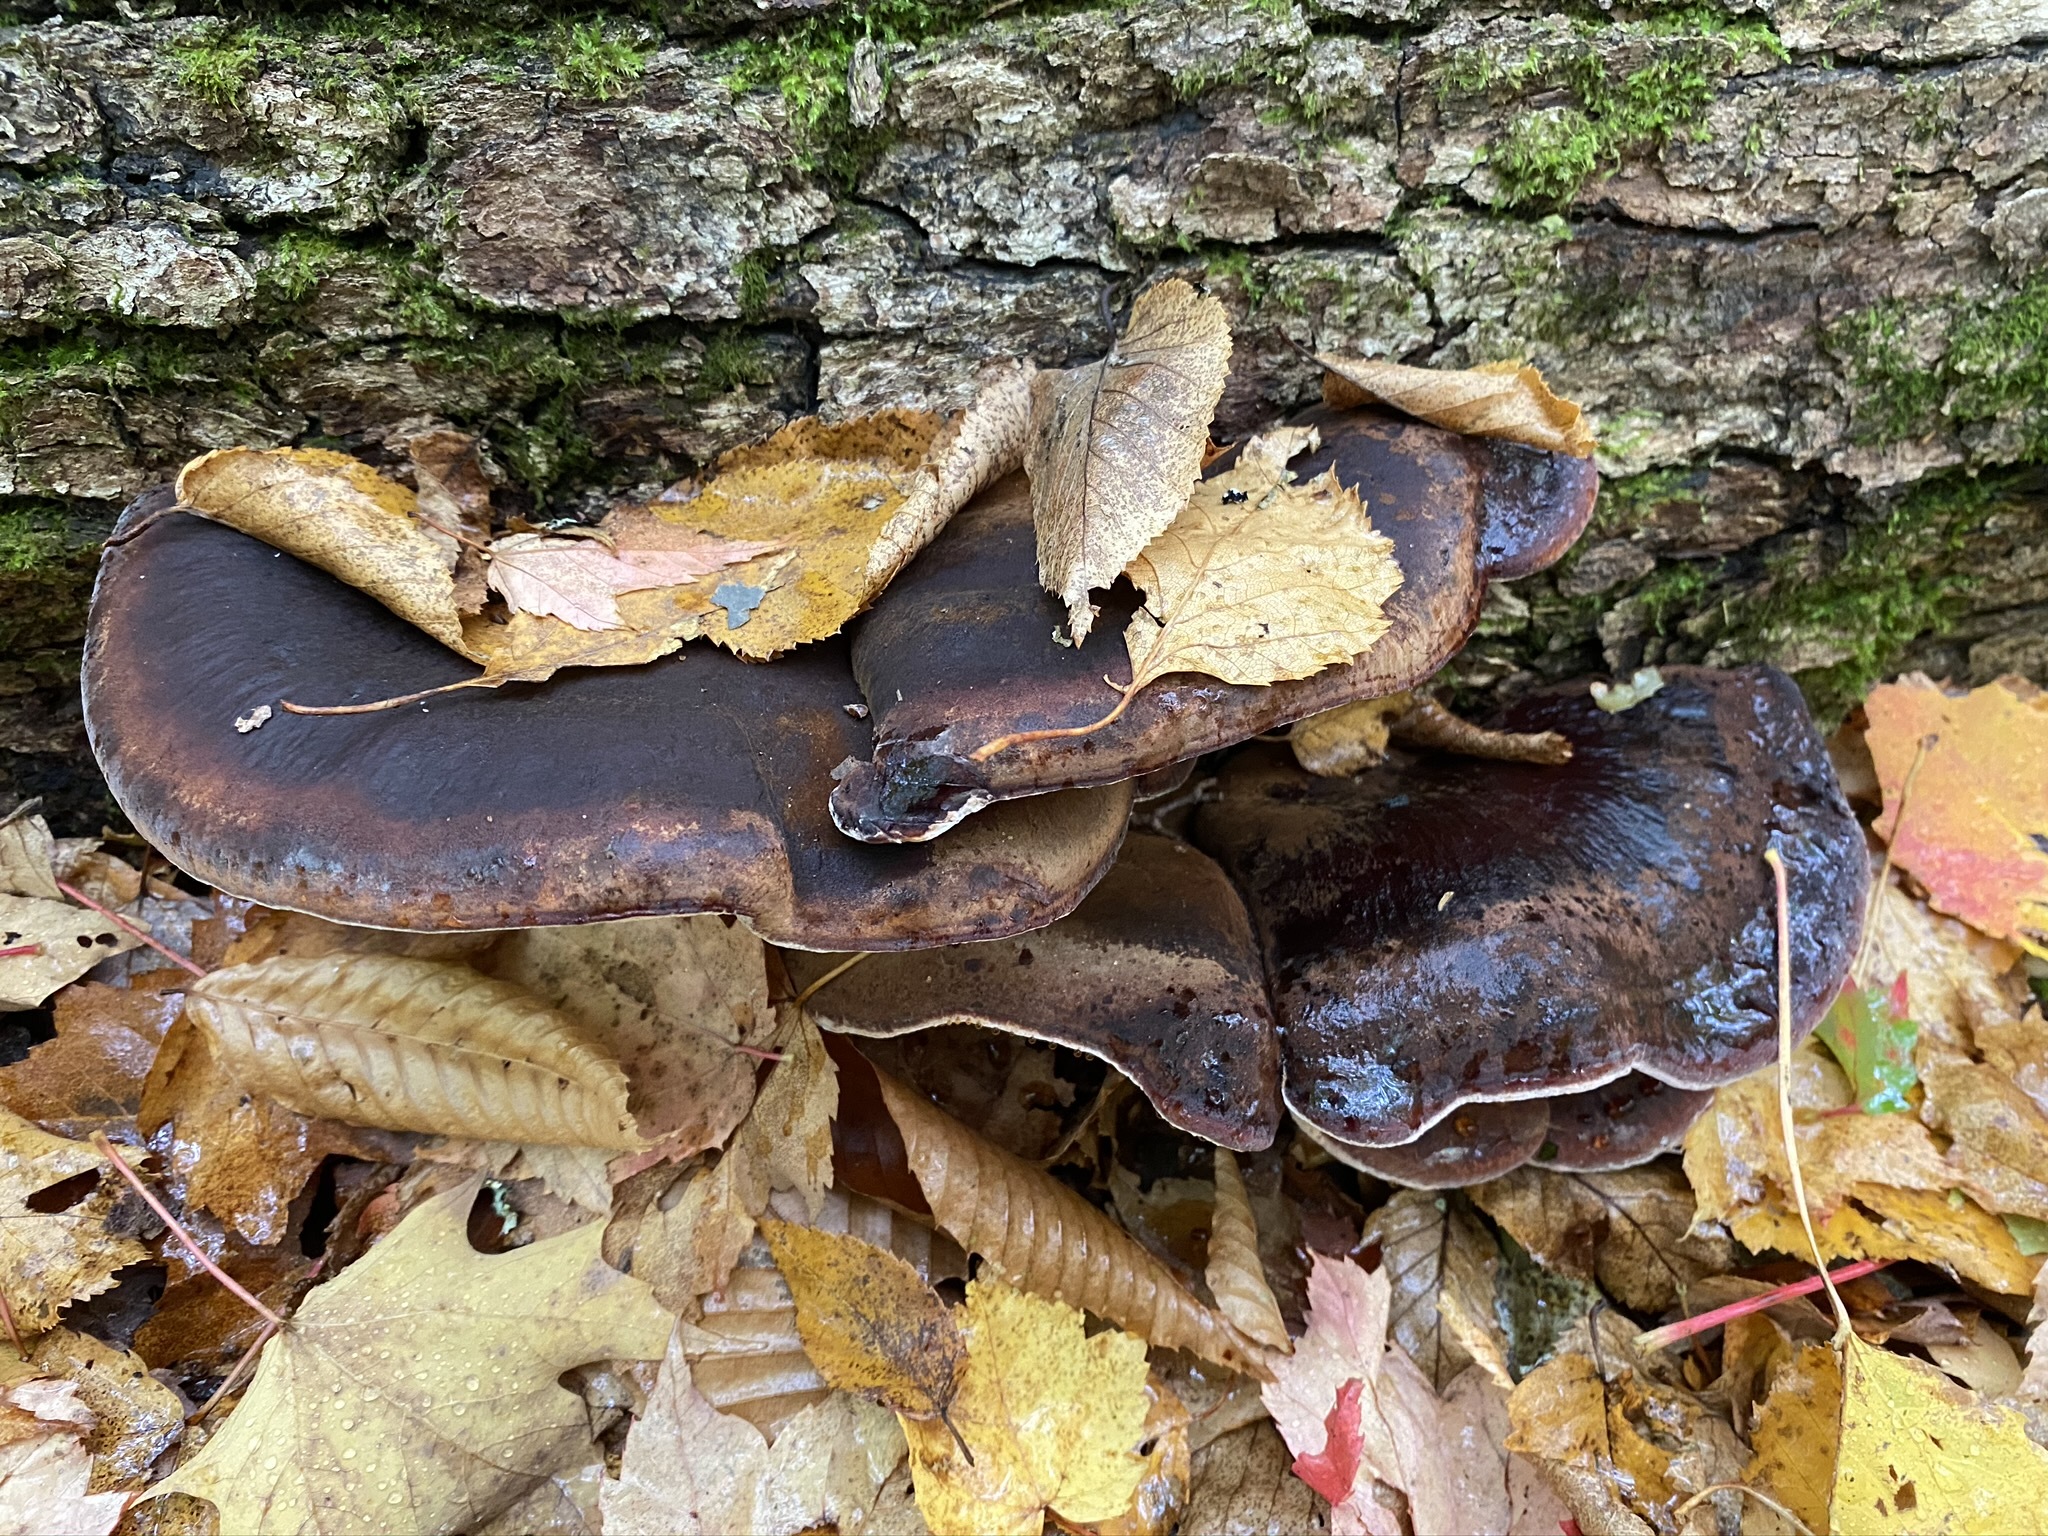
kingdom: Fungi
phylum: Basidiomycota
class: Agaricomycetes
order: Polyporales
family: Ischnodermataceae
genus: Ischnoderma
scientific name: Ischnoderma resinosum
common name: Resinous polypore
